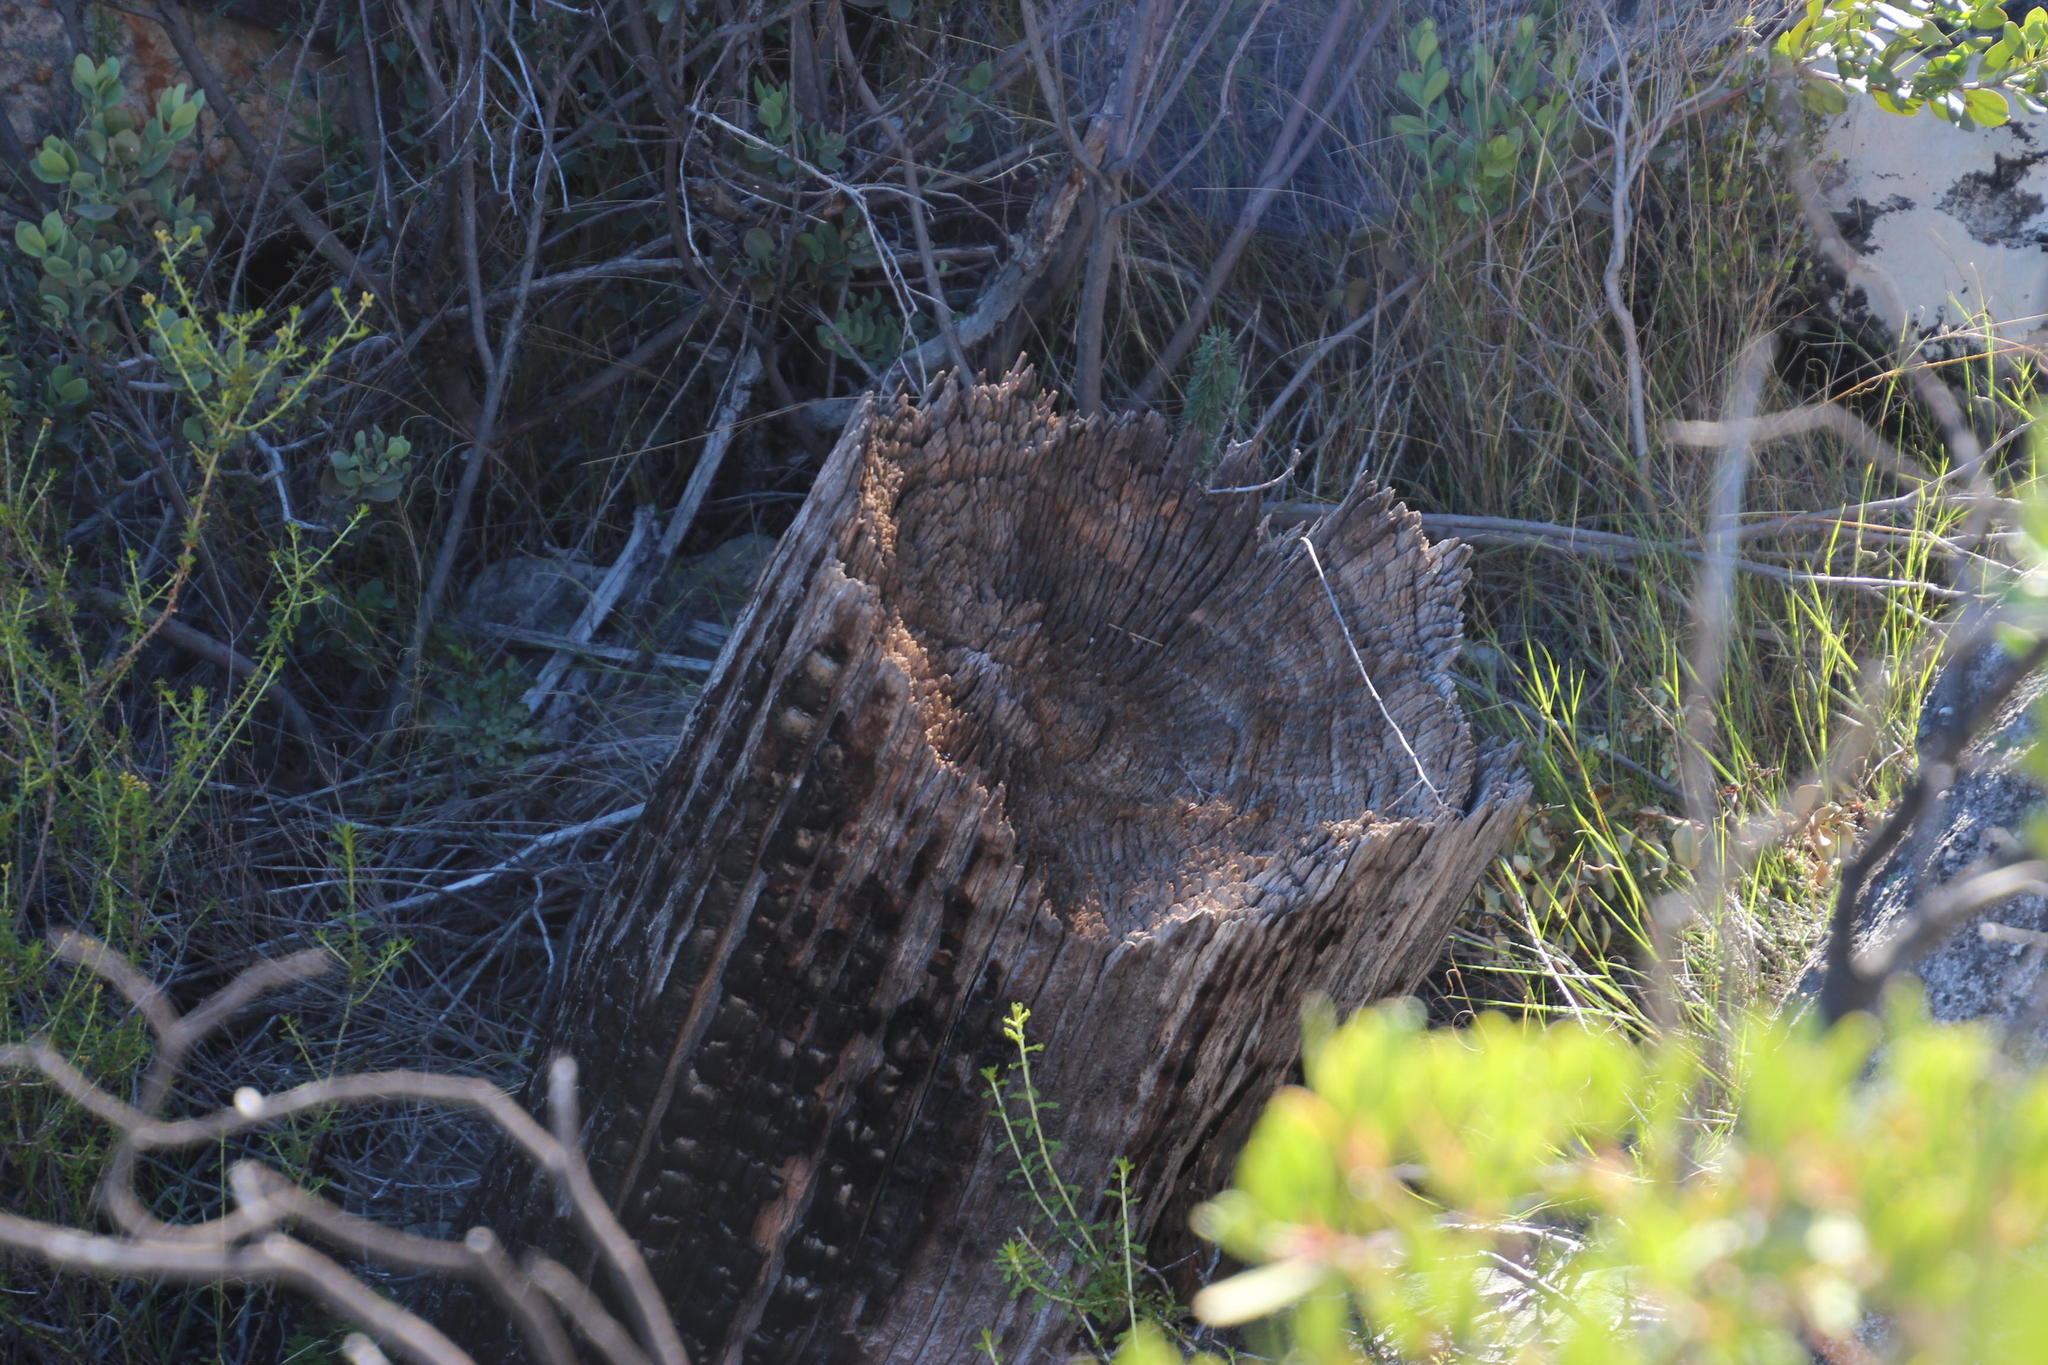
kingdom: Plantae
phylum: Tracheophyta
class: Pinopsida
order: Pinales
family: Cupressaceae
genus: Widdringtonia
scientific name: Widdringtonia nodiflora
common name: Cape cypress
